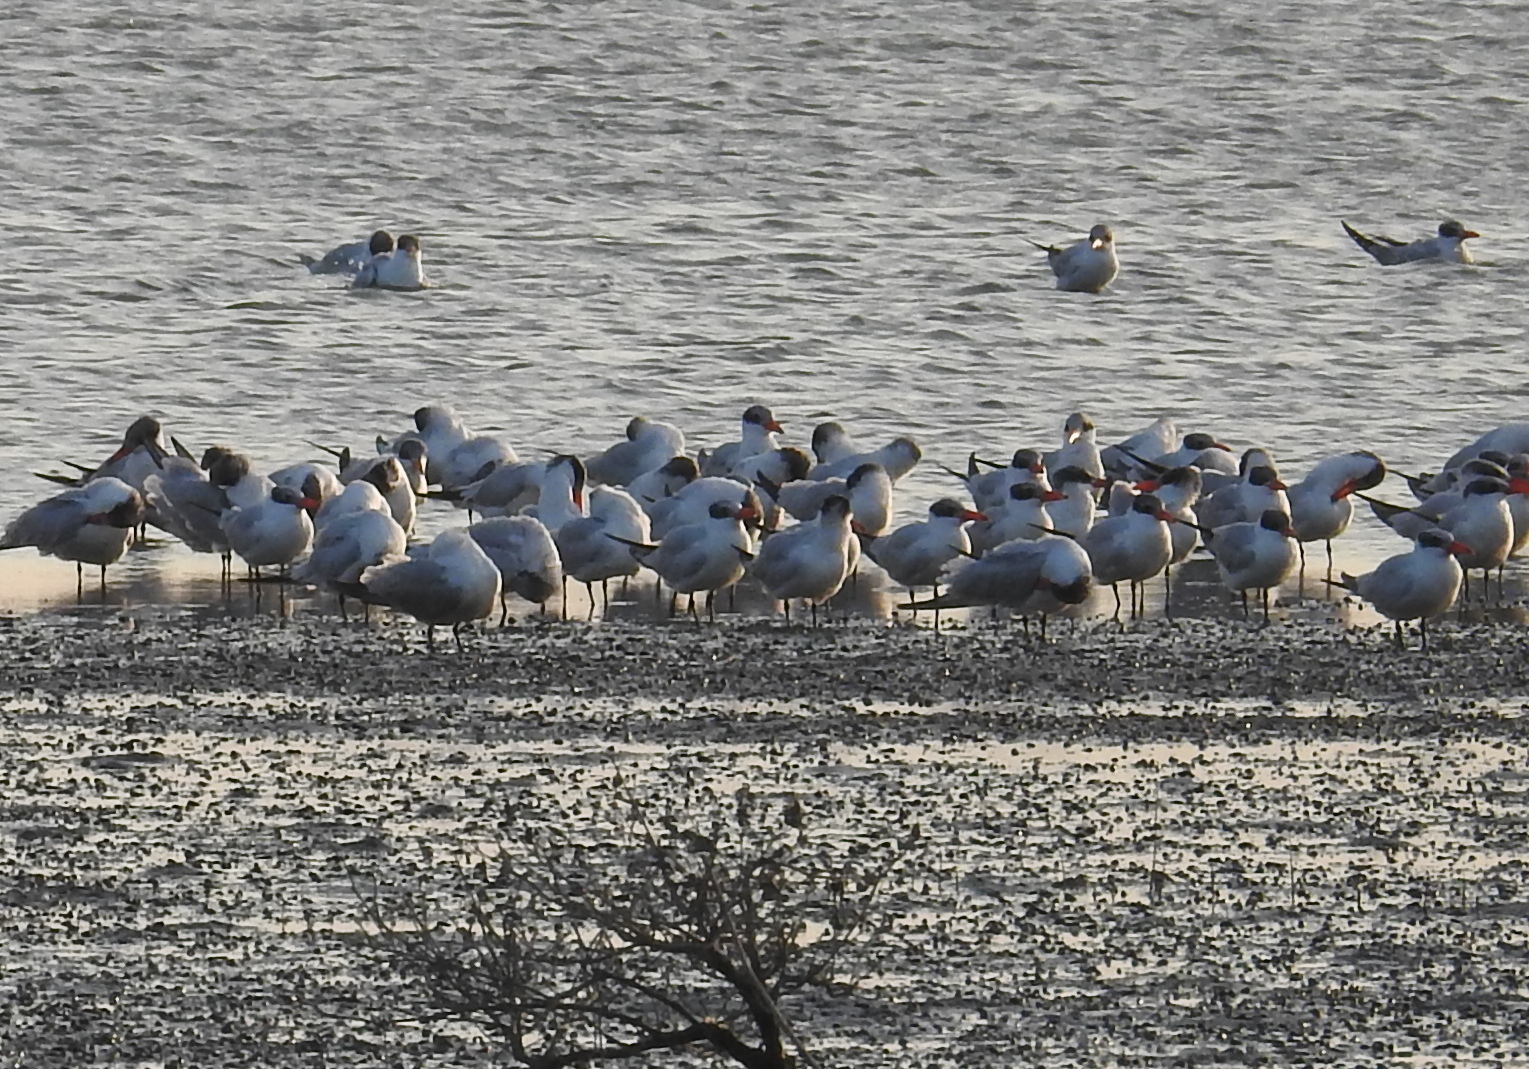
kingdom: Animalia
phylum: Chordata
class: Aves
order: Charadriiformes
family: Laridae
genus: Hydroprogne
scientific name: Hydroprogne caspia
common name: Caspian tern
